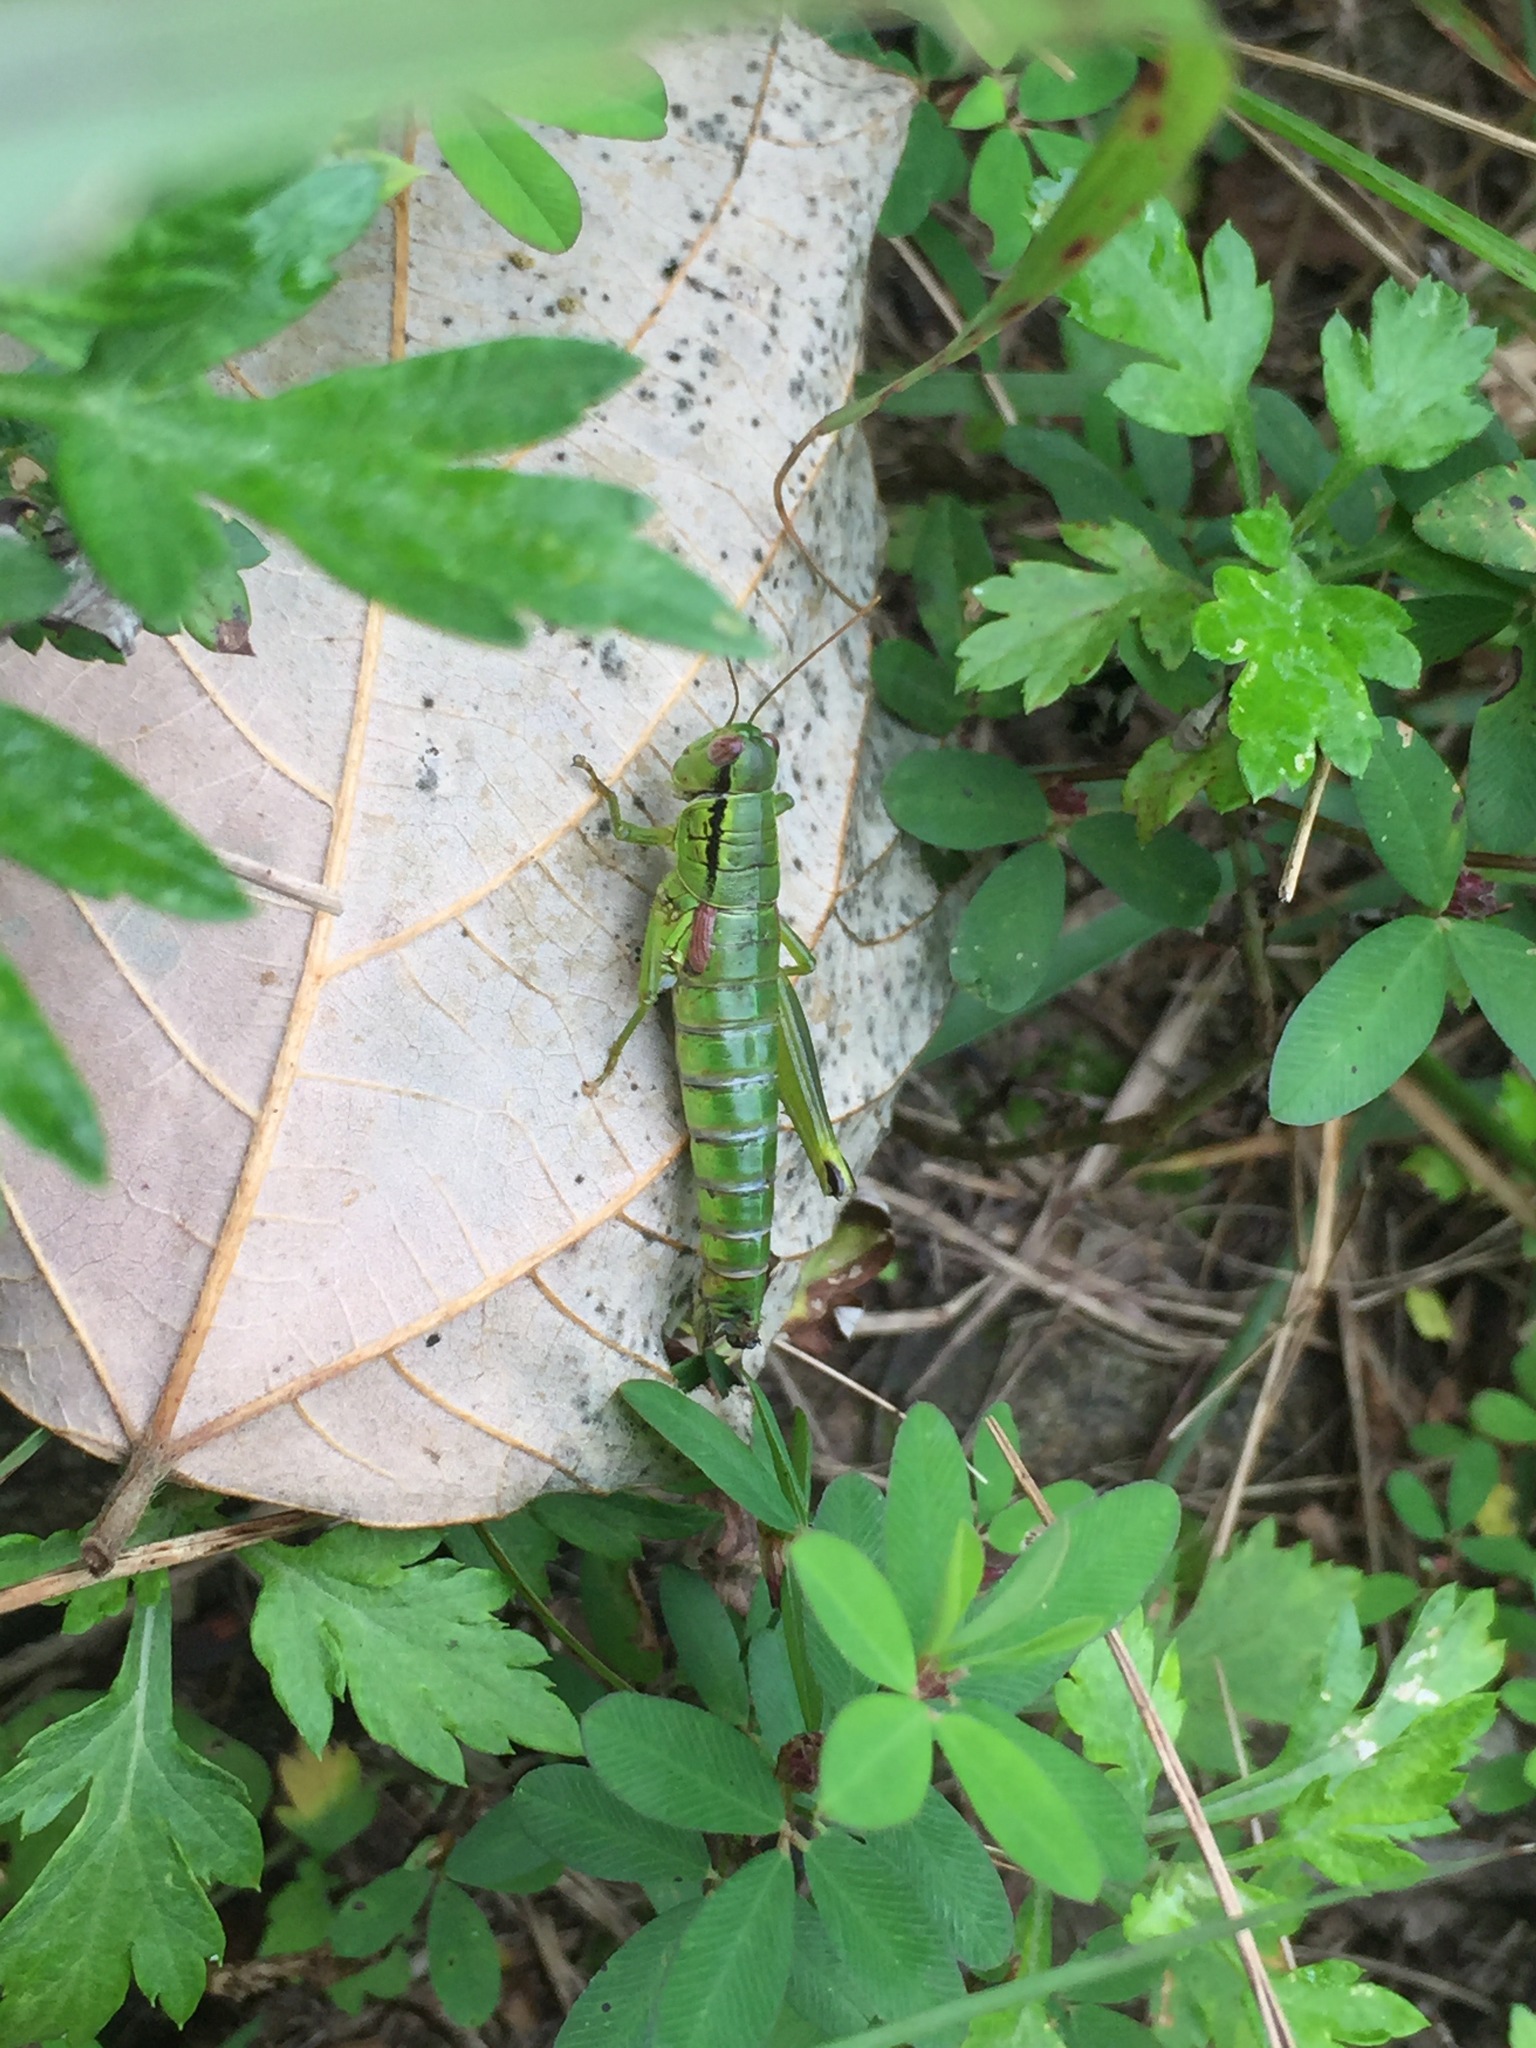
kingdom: Animalia
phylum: Arthropoda
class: Insecta
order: Orthoptera
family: Acrididae
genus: Anapodisma
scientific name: Anapodisma miramae
